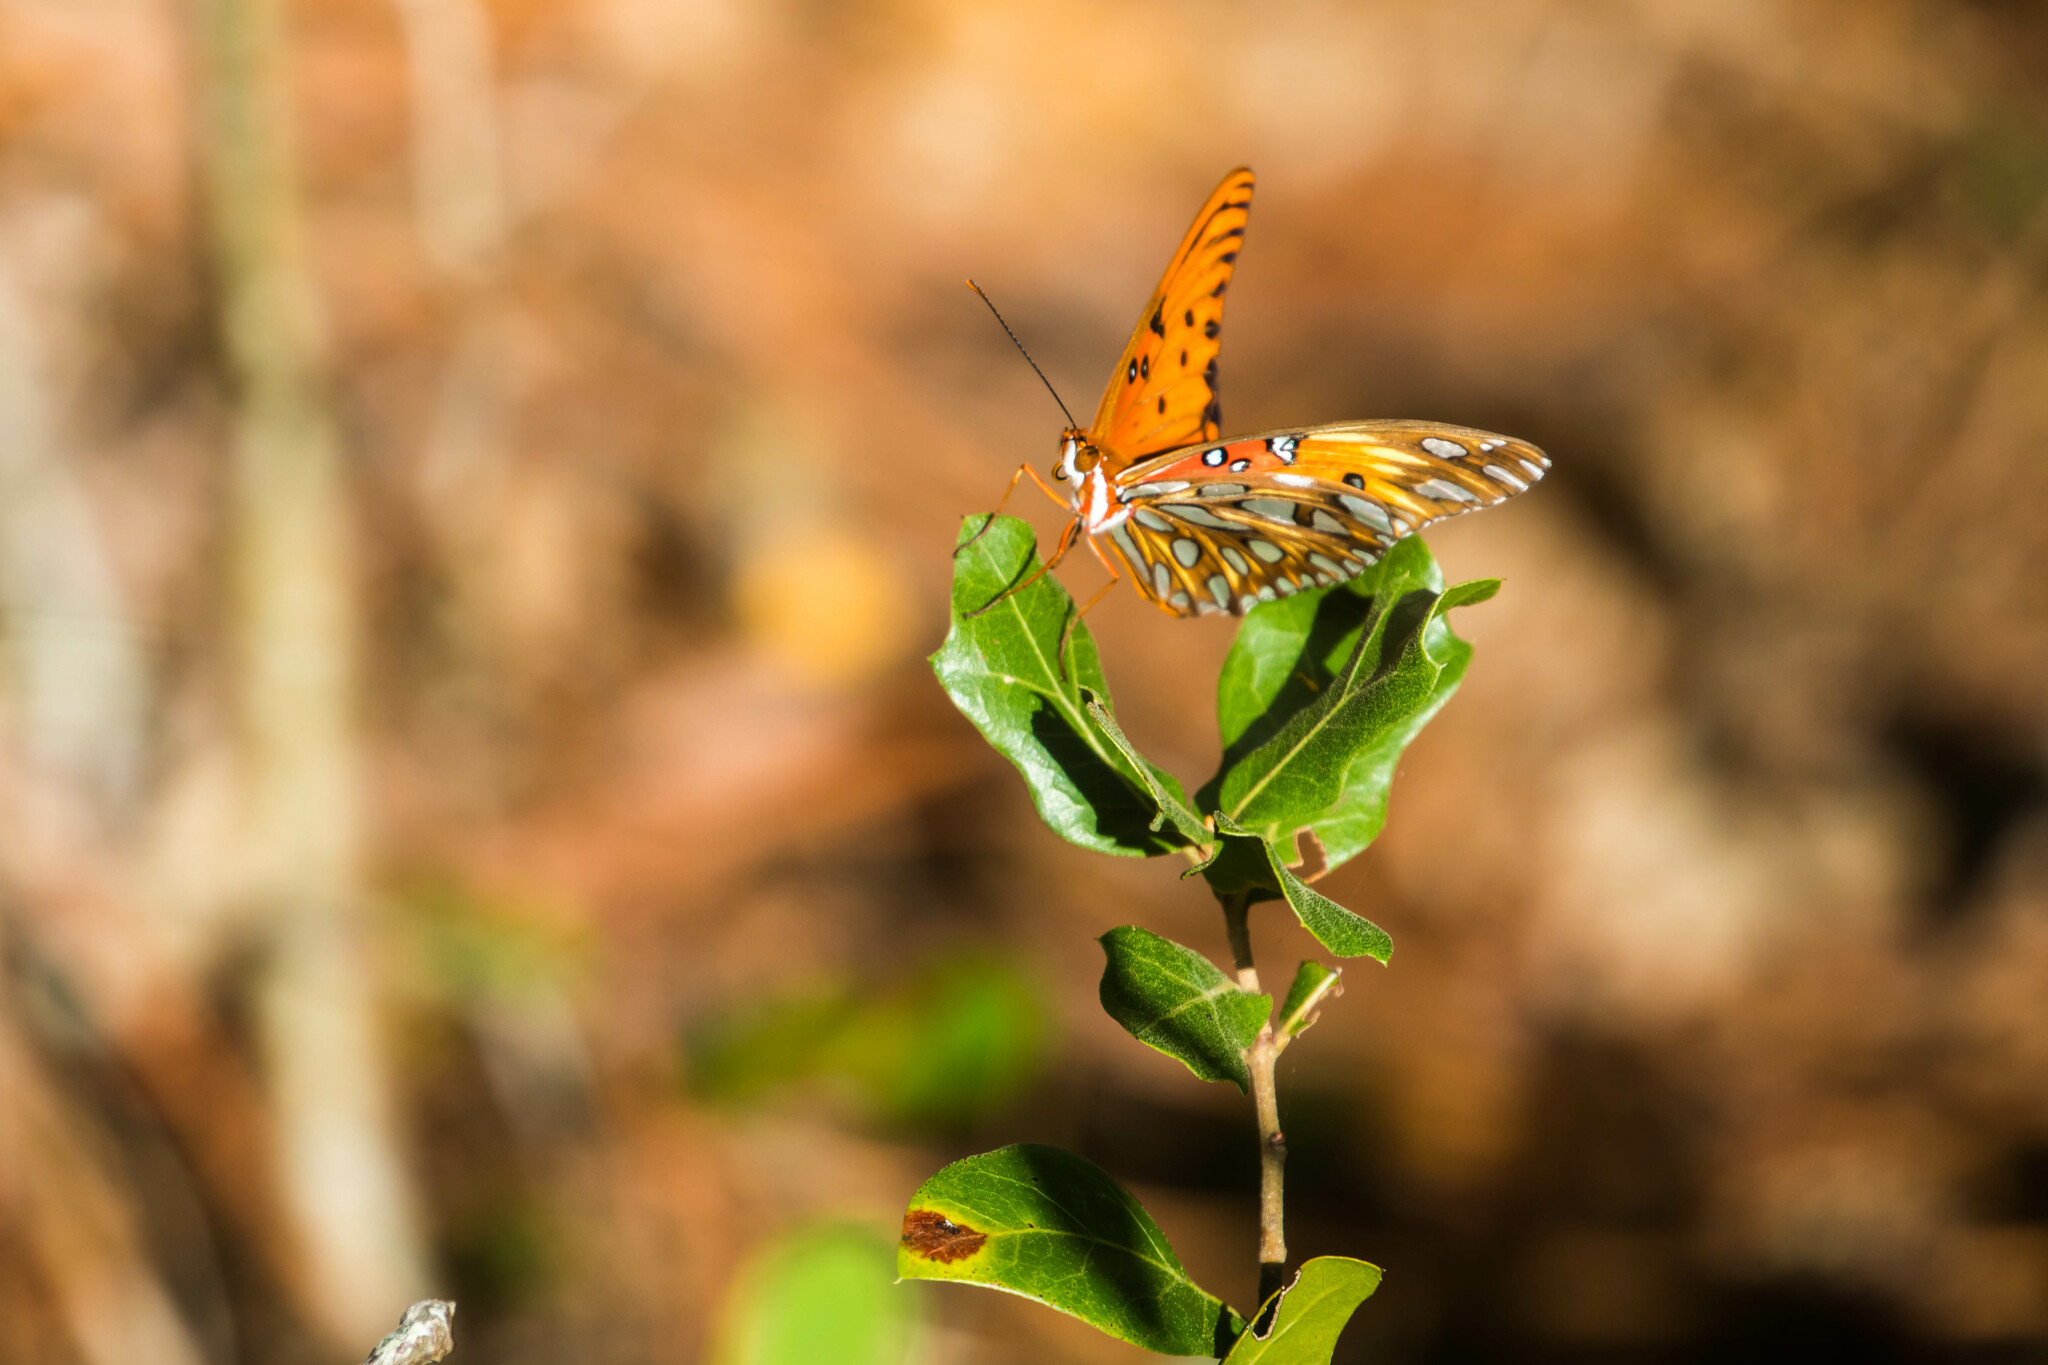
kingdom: Animalia
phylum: Arthropoda
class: Insecta
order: Lepidoptera
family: Nymphalidae
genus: Dione
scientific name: Dione vanillae
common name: Gulf fritillary
